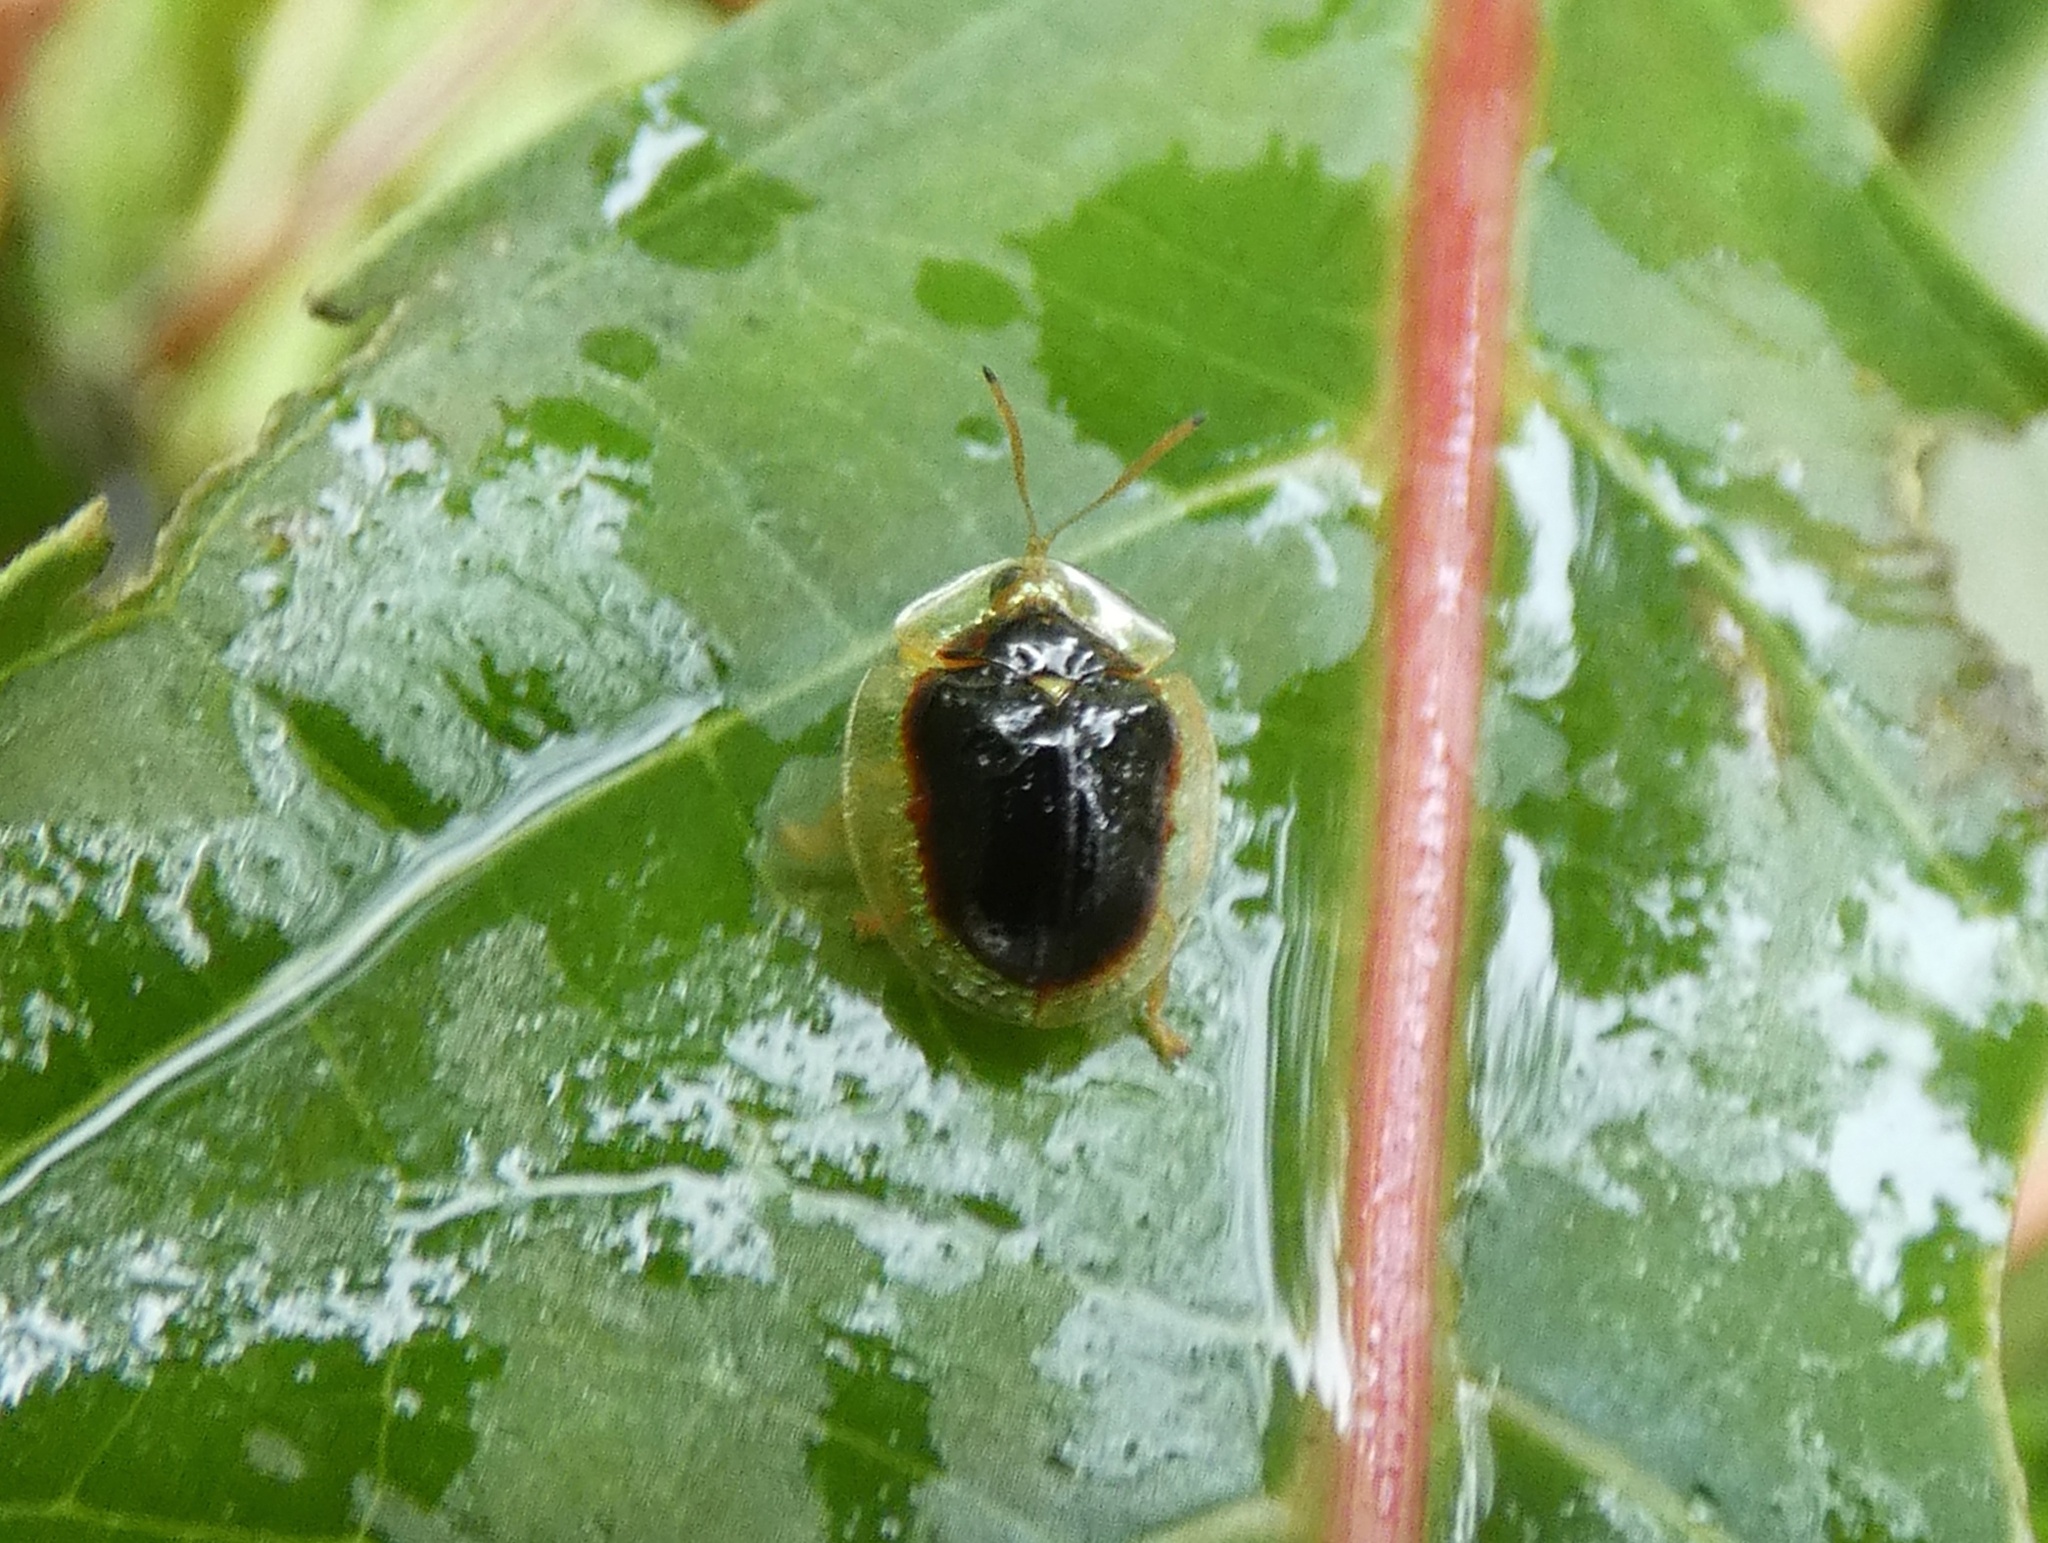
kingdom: Animalia
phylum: Arthropoda
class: Insecta
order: Coleoptera
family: Chrysomelidae
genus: Charidotella
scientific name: Charidotella semiatrata
